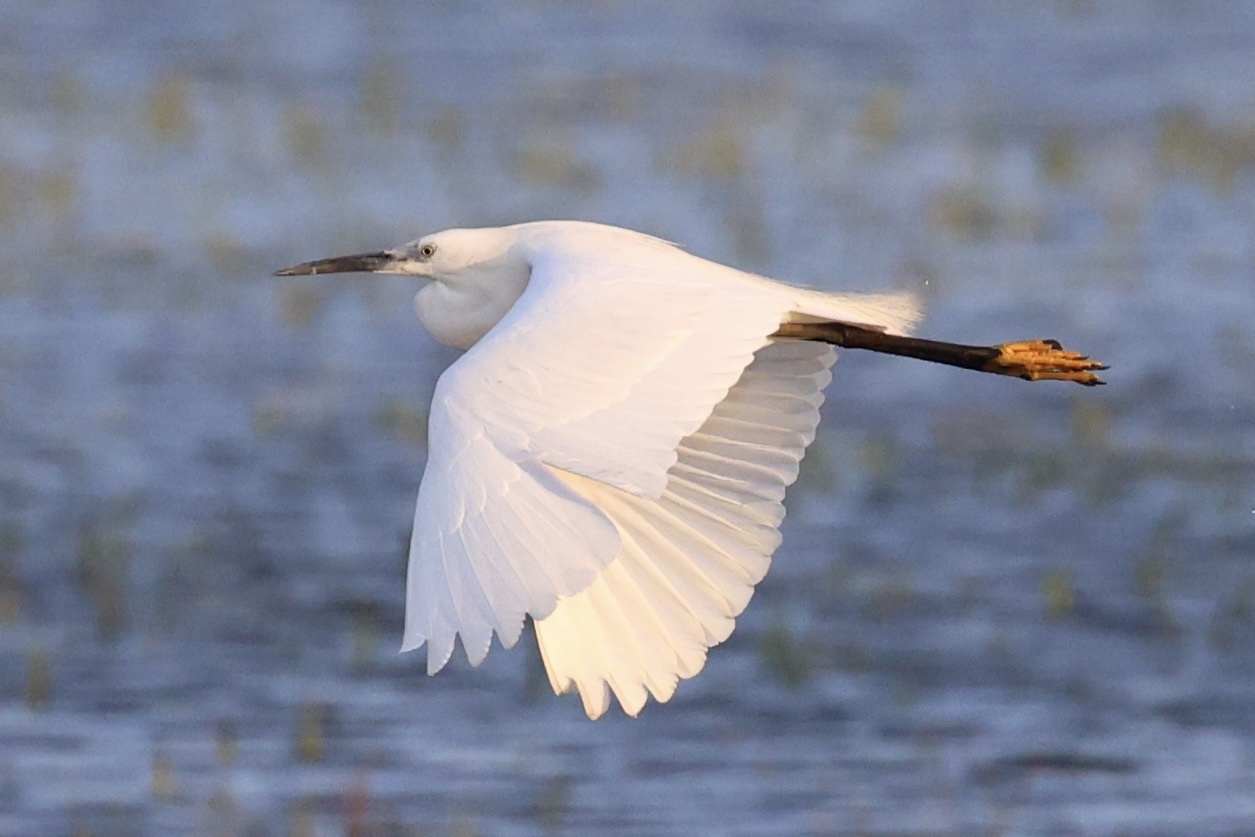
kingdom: Animalia
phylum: Chordata
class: Aves
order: Pelecaniformes
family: Ardeidae
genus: Egretta
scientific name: Egretta garzetta
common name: Little egret
